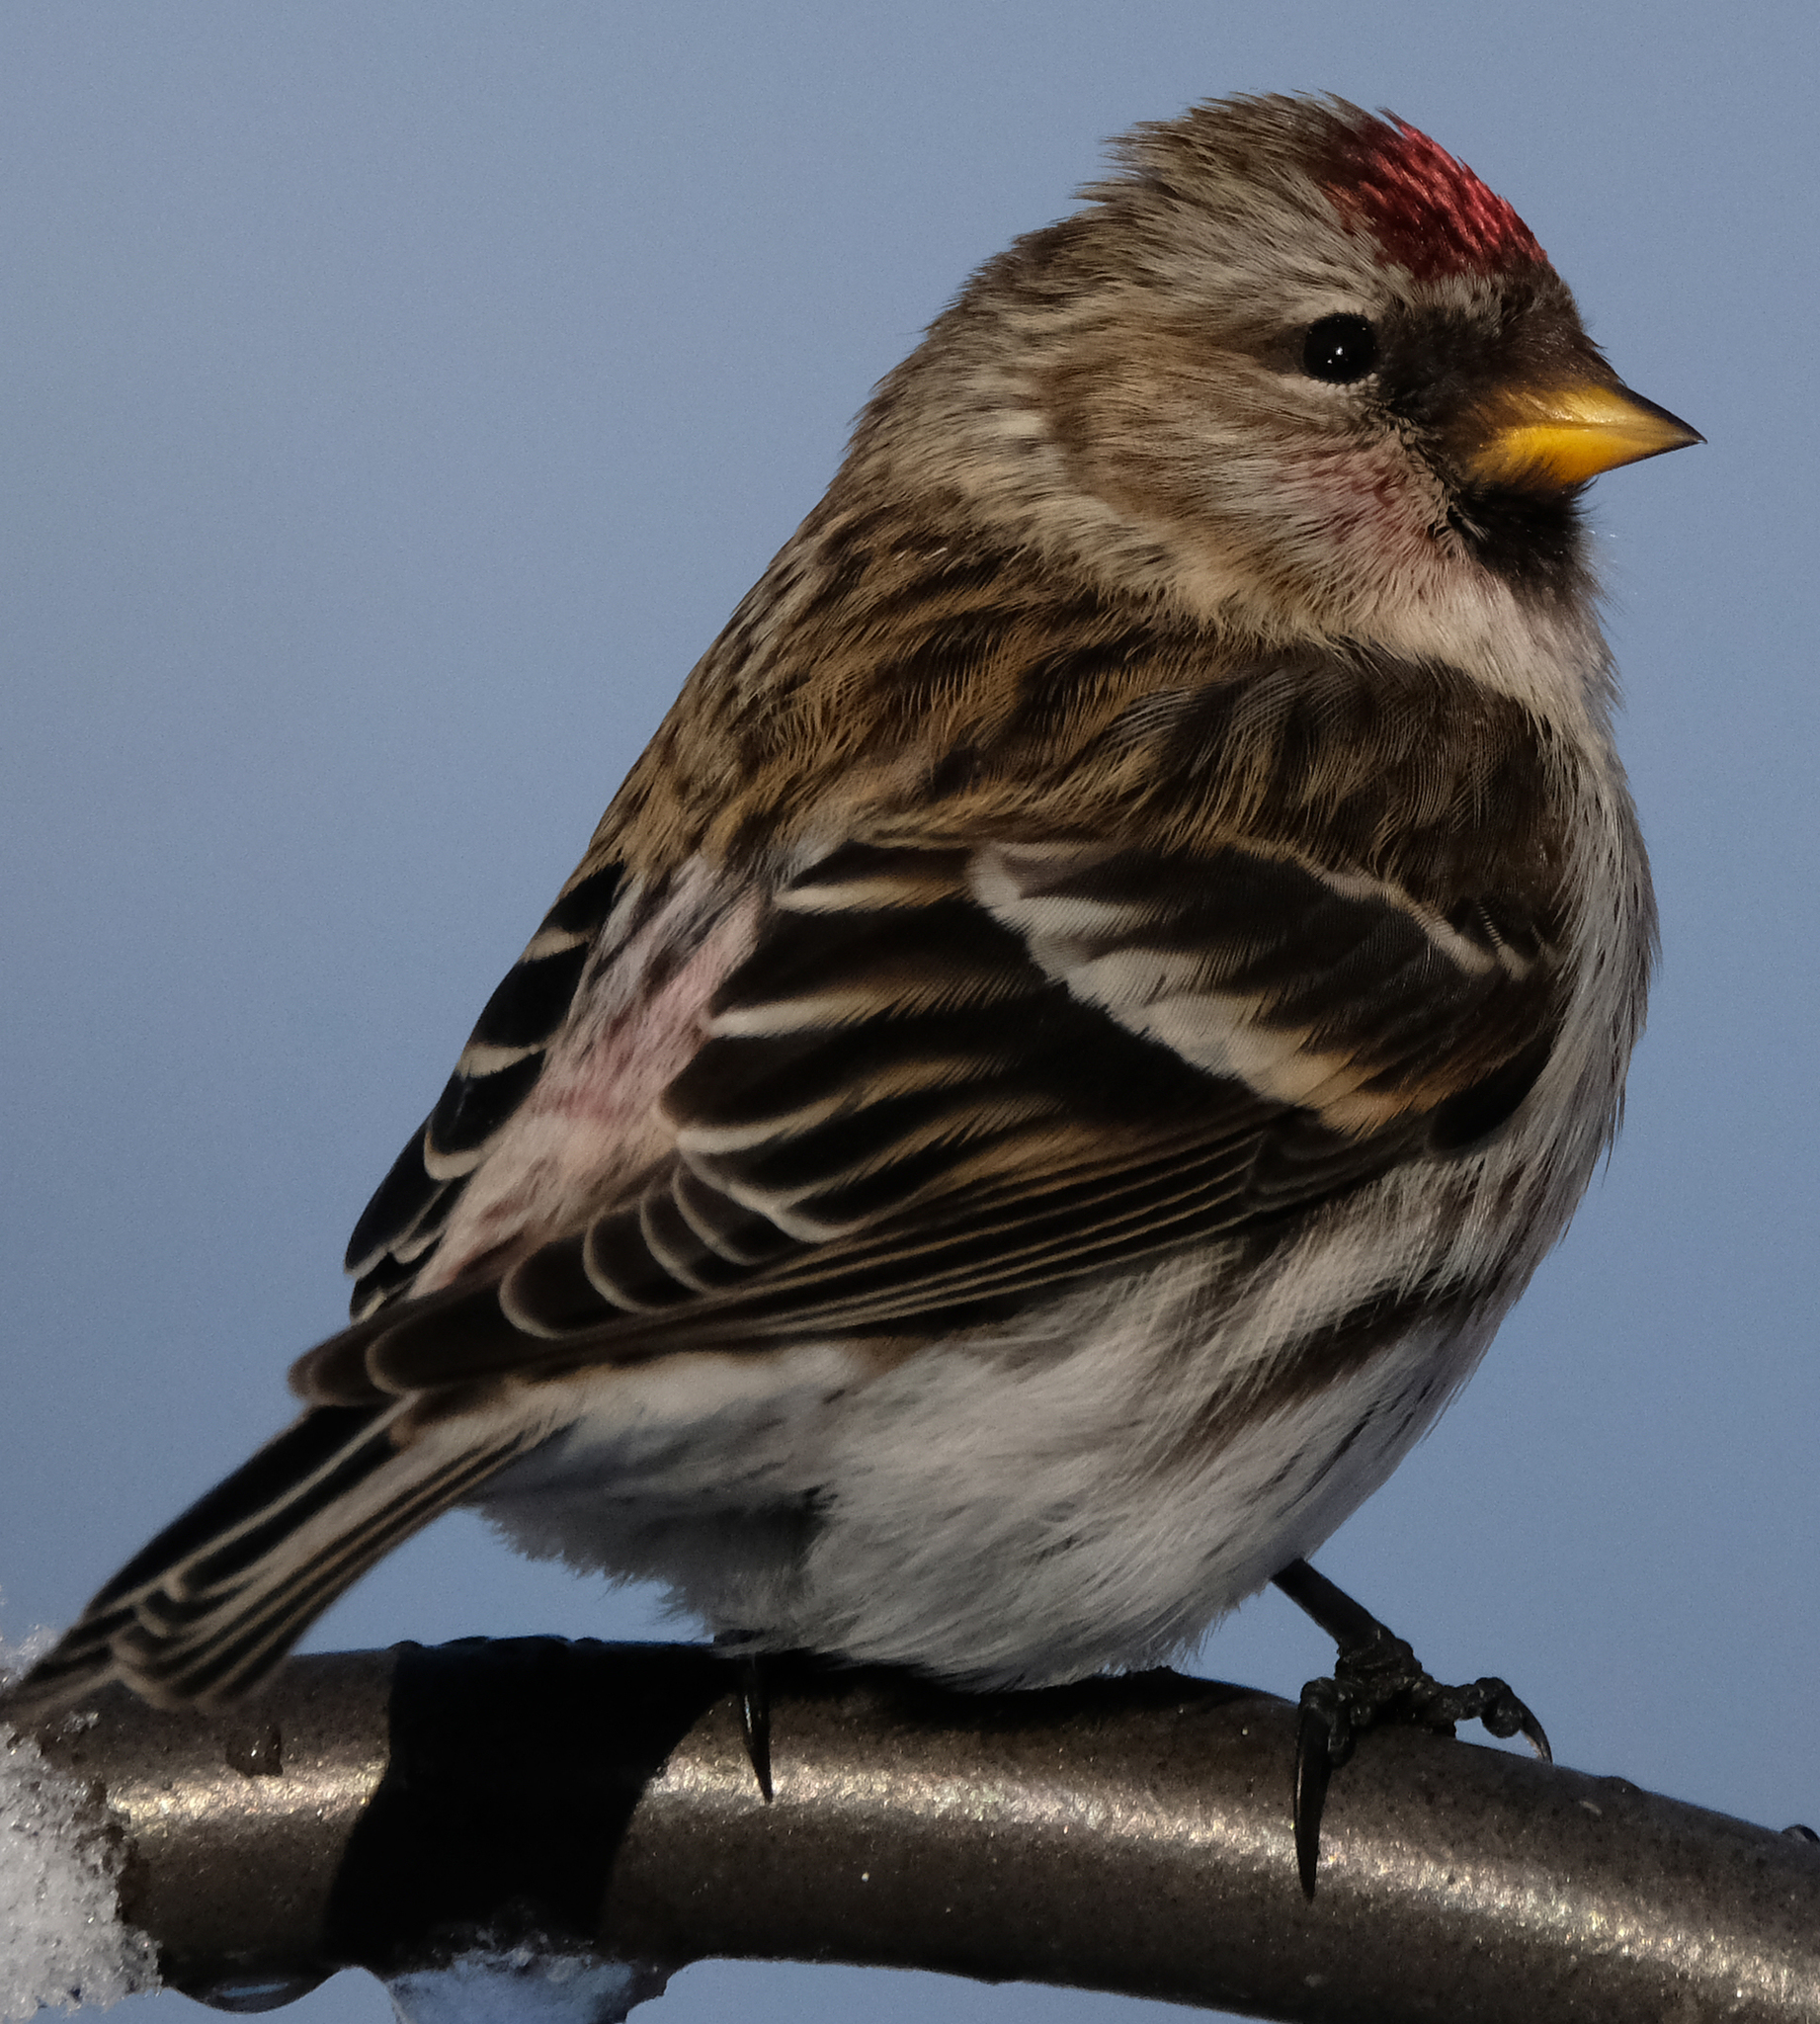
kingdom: Animalia
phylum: Chordata
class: Aves
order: Passeriformes
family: Fringillidae
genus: Acanthis
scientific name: Acanthis flammea
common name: Common redpoll
